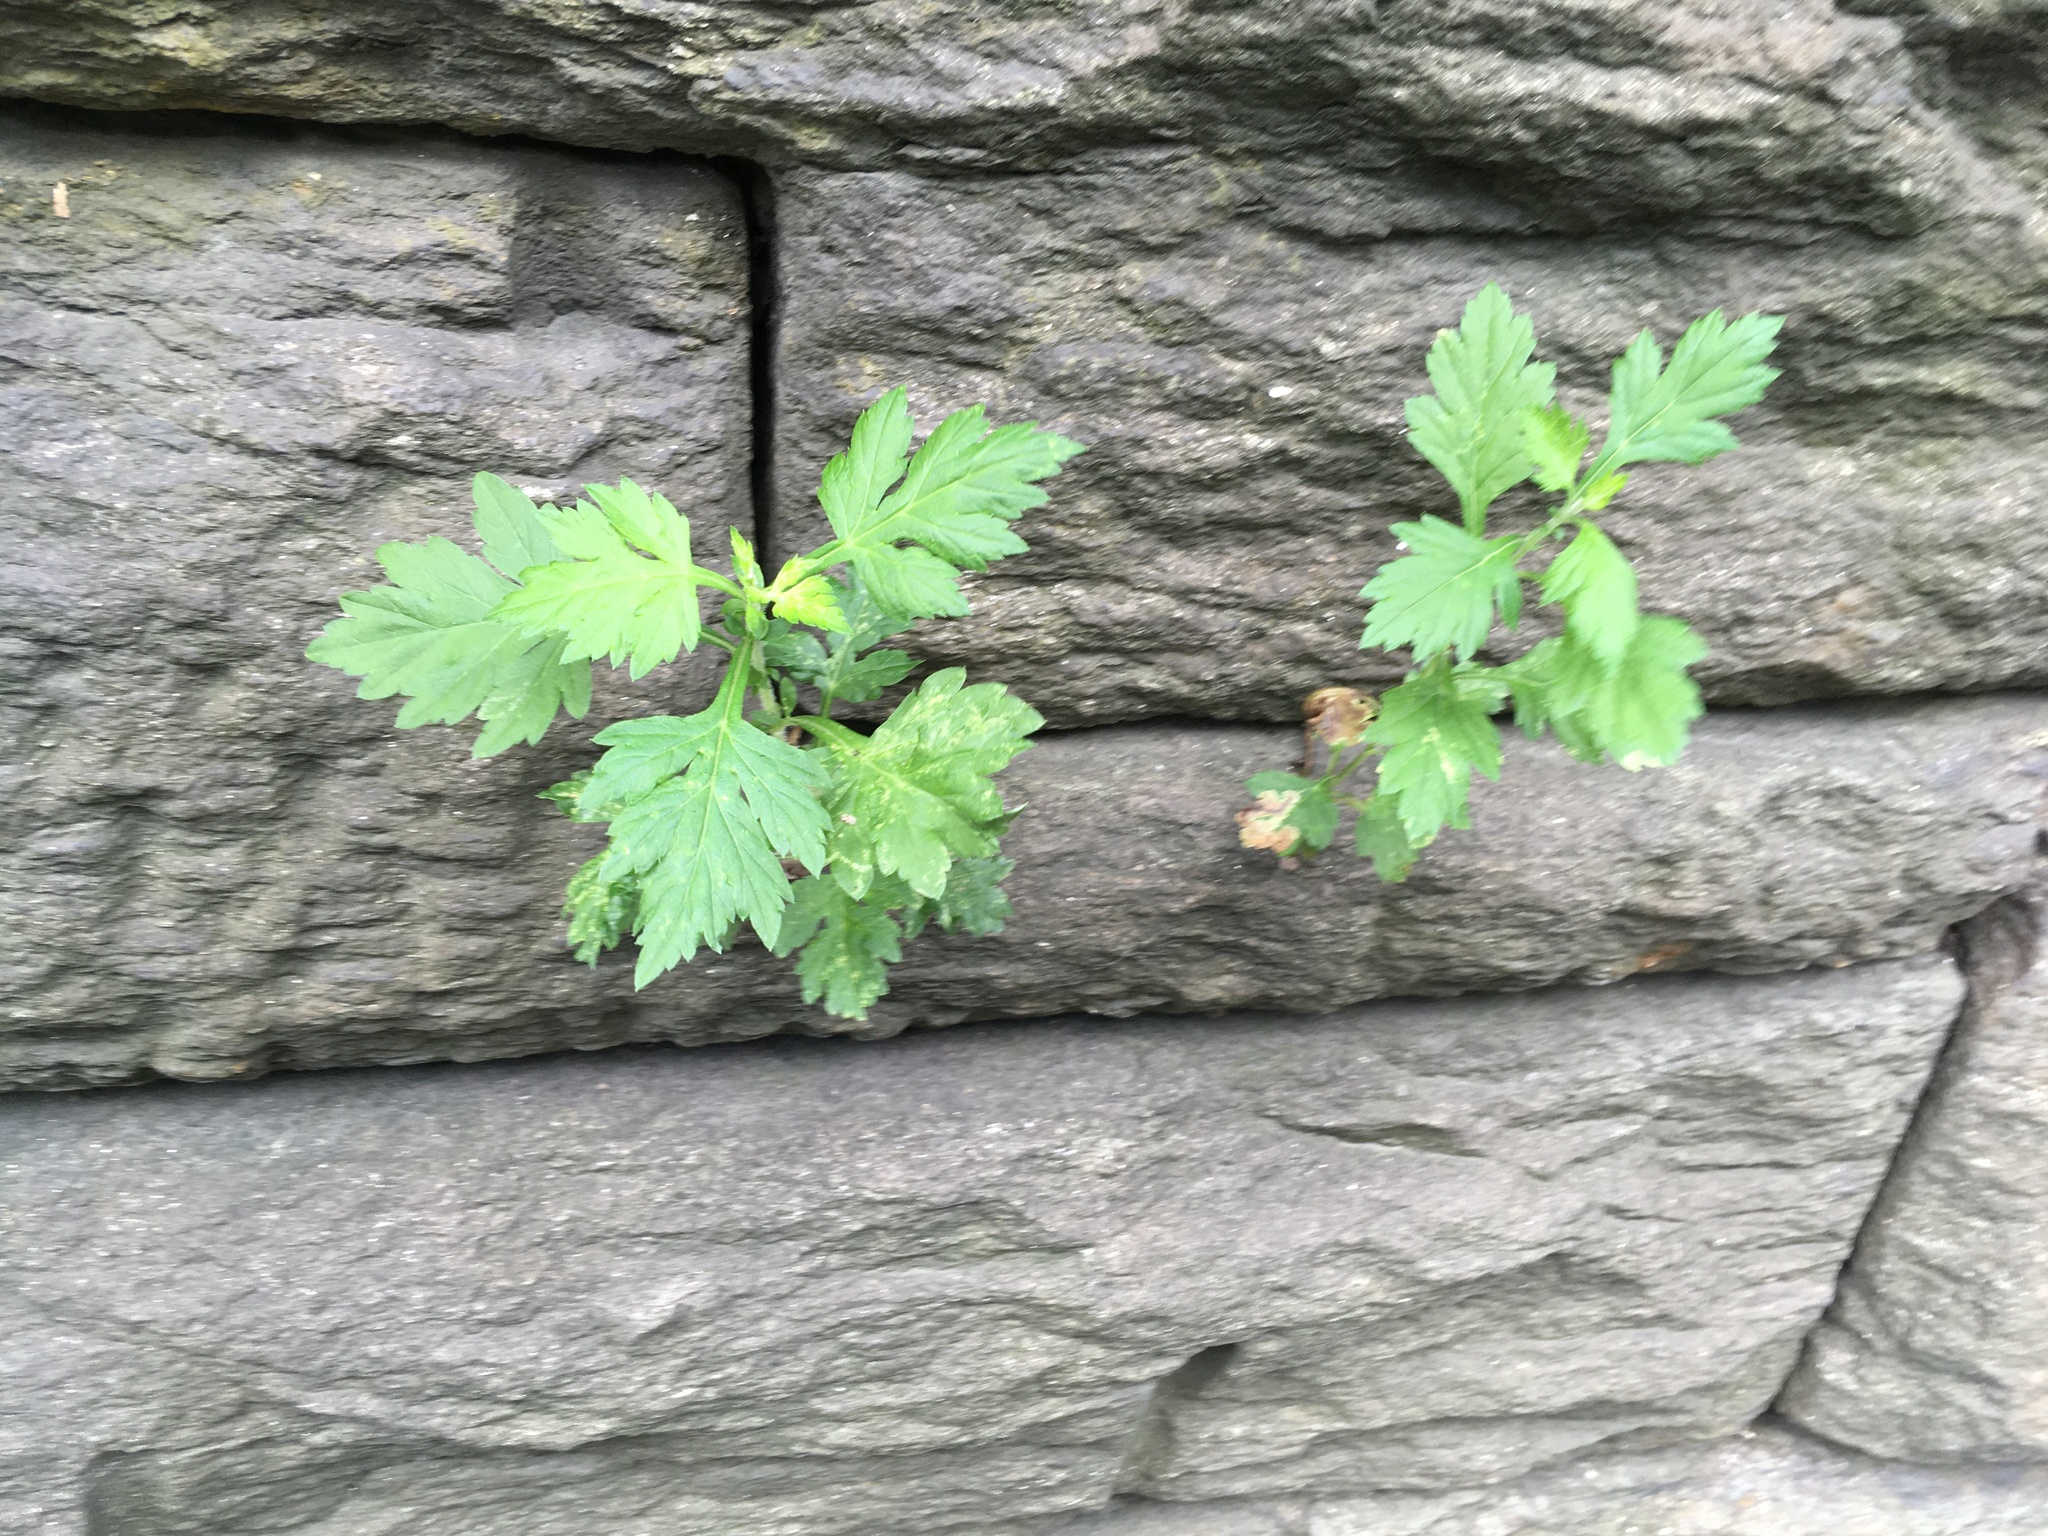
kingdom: Plantae
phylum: Tracheophyta
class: Magnoliopsida
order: Asterales
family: Asteraceae
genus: Artemisia
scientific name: Artemisia vulgaris
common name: Mugwort
